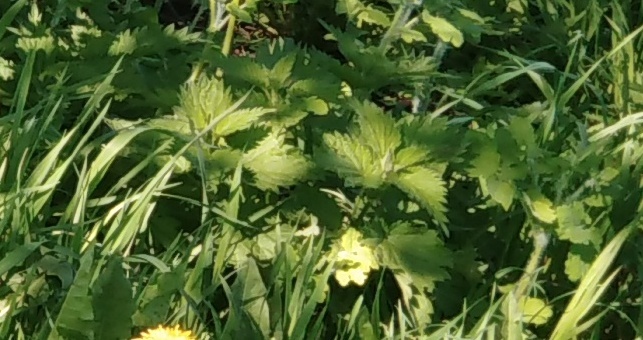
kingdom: Plantae
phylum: Tracheophyta
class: Magnoliopsida
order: Rosales
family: Urticaceae
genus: Urtica
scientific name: Urtica dioica
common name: Common nettle
